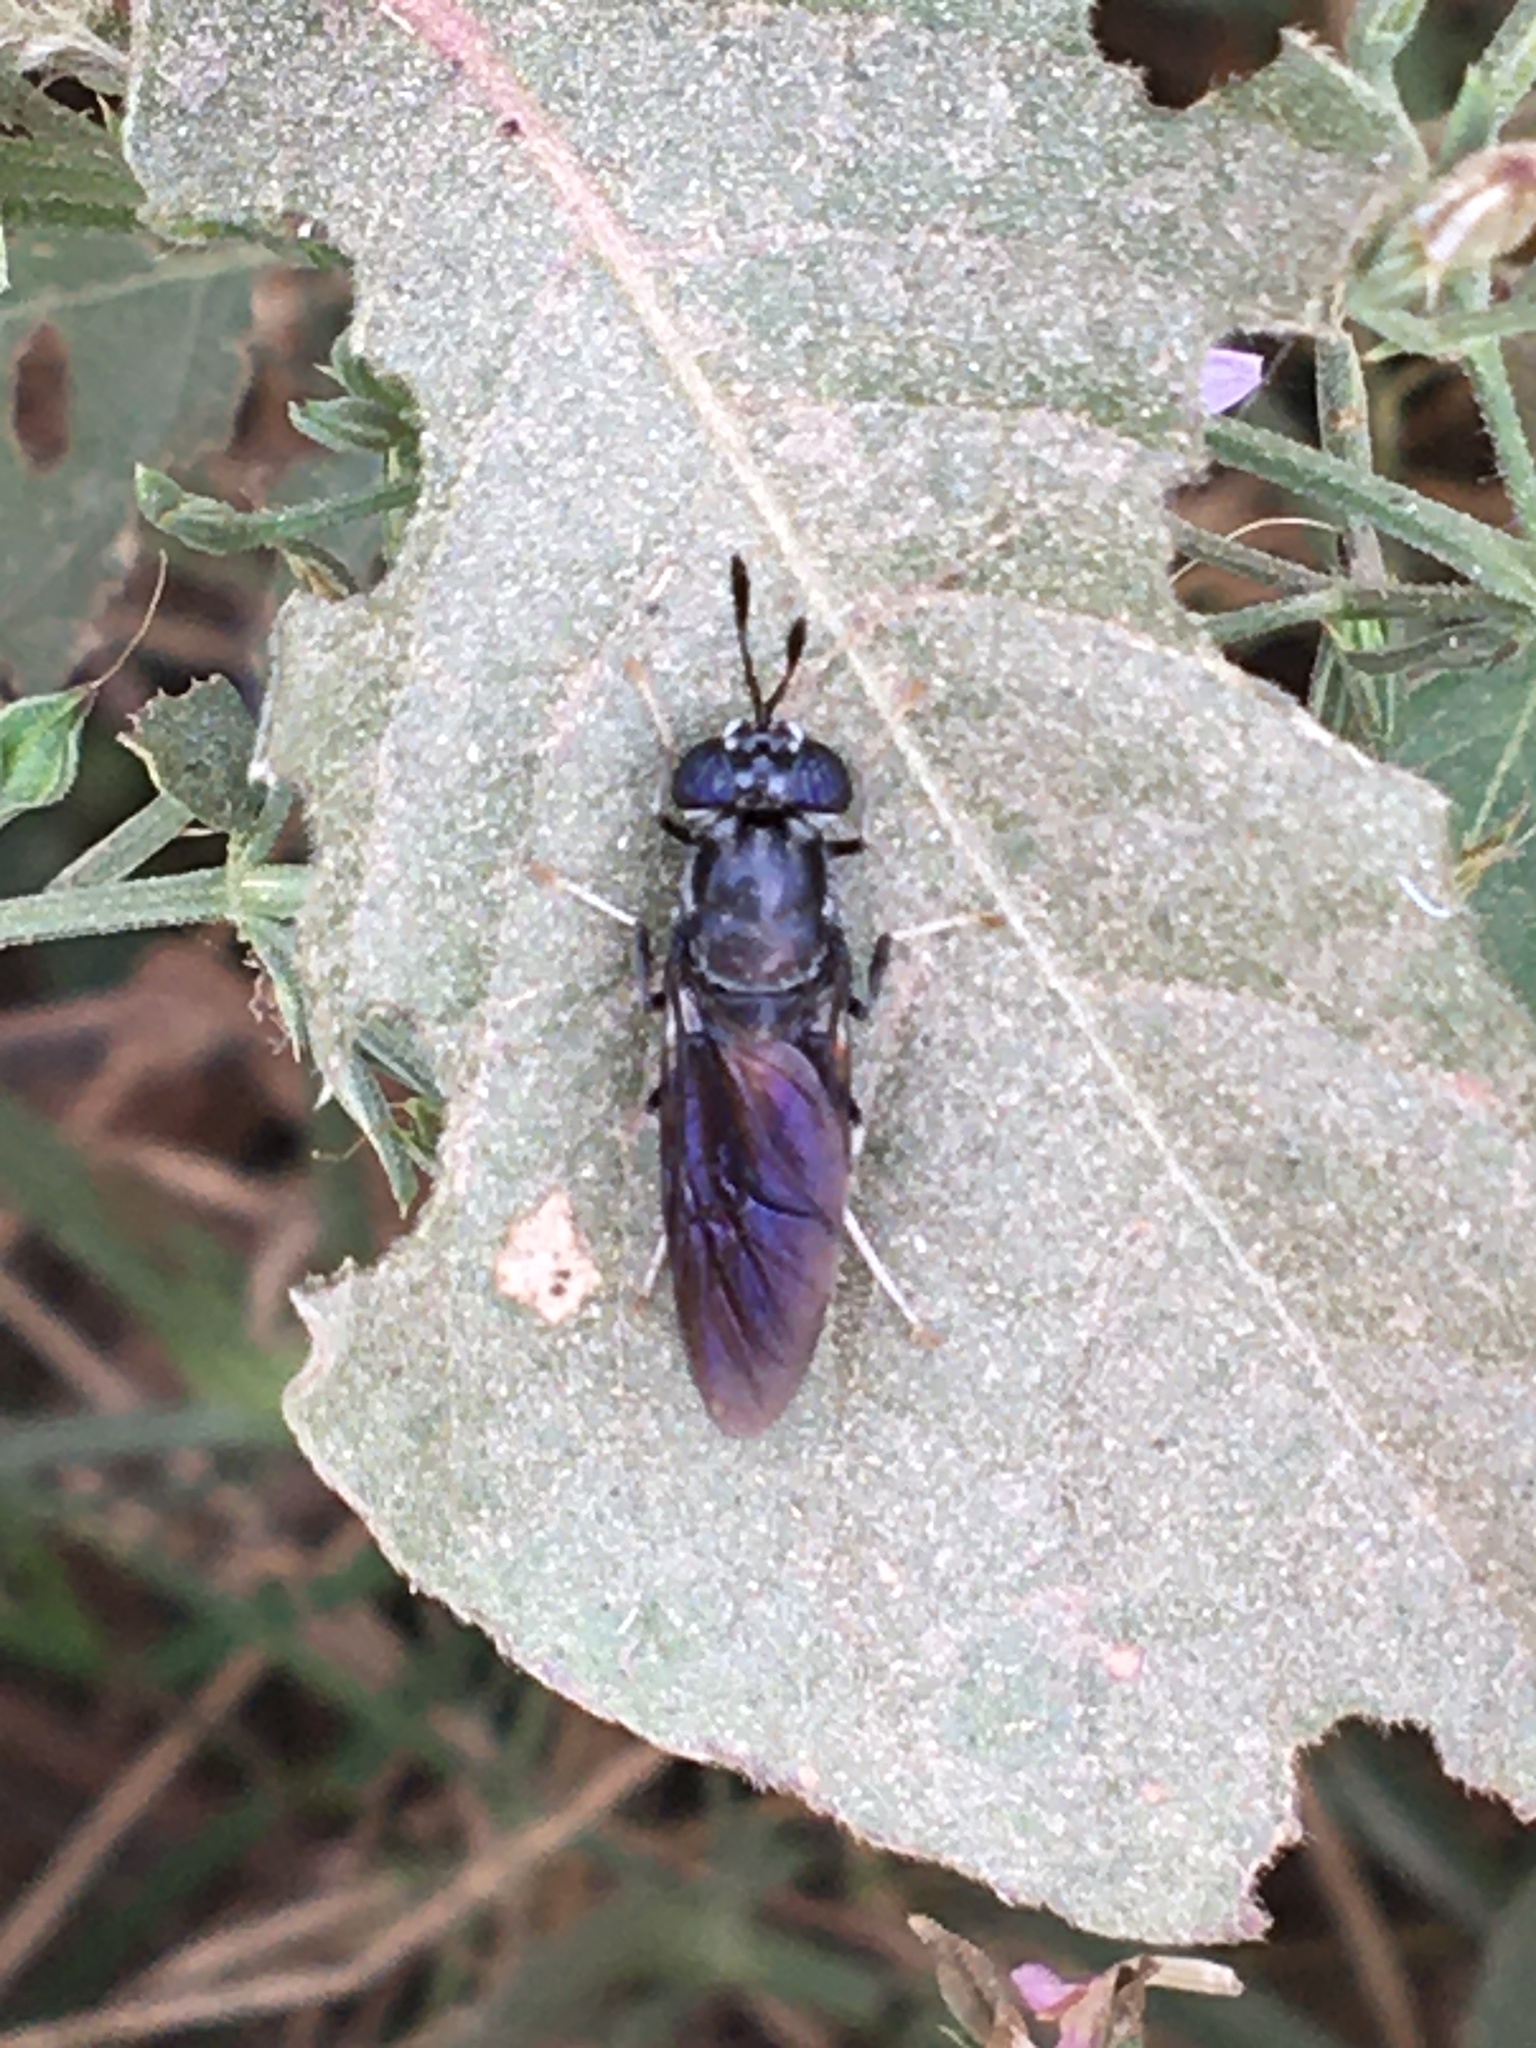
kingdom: Animalia
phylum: Arthropoda
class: Insecta
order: Diptera
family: Stratiomyidae
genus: Hermetia
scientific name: Hermetia illucens
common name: Black soldier fly
